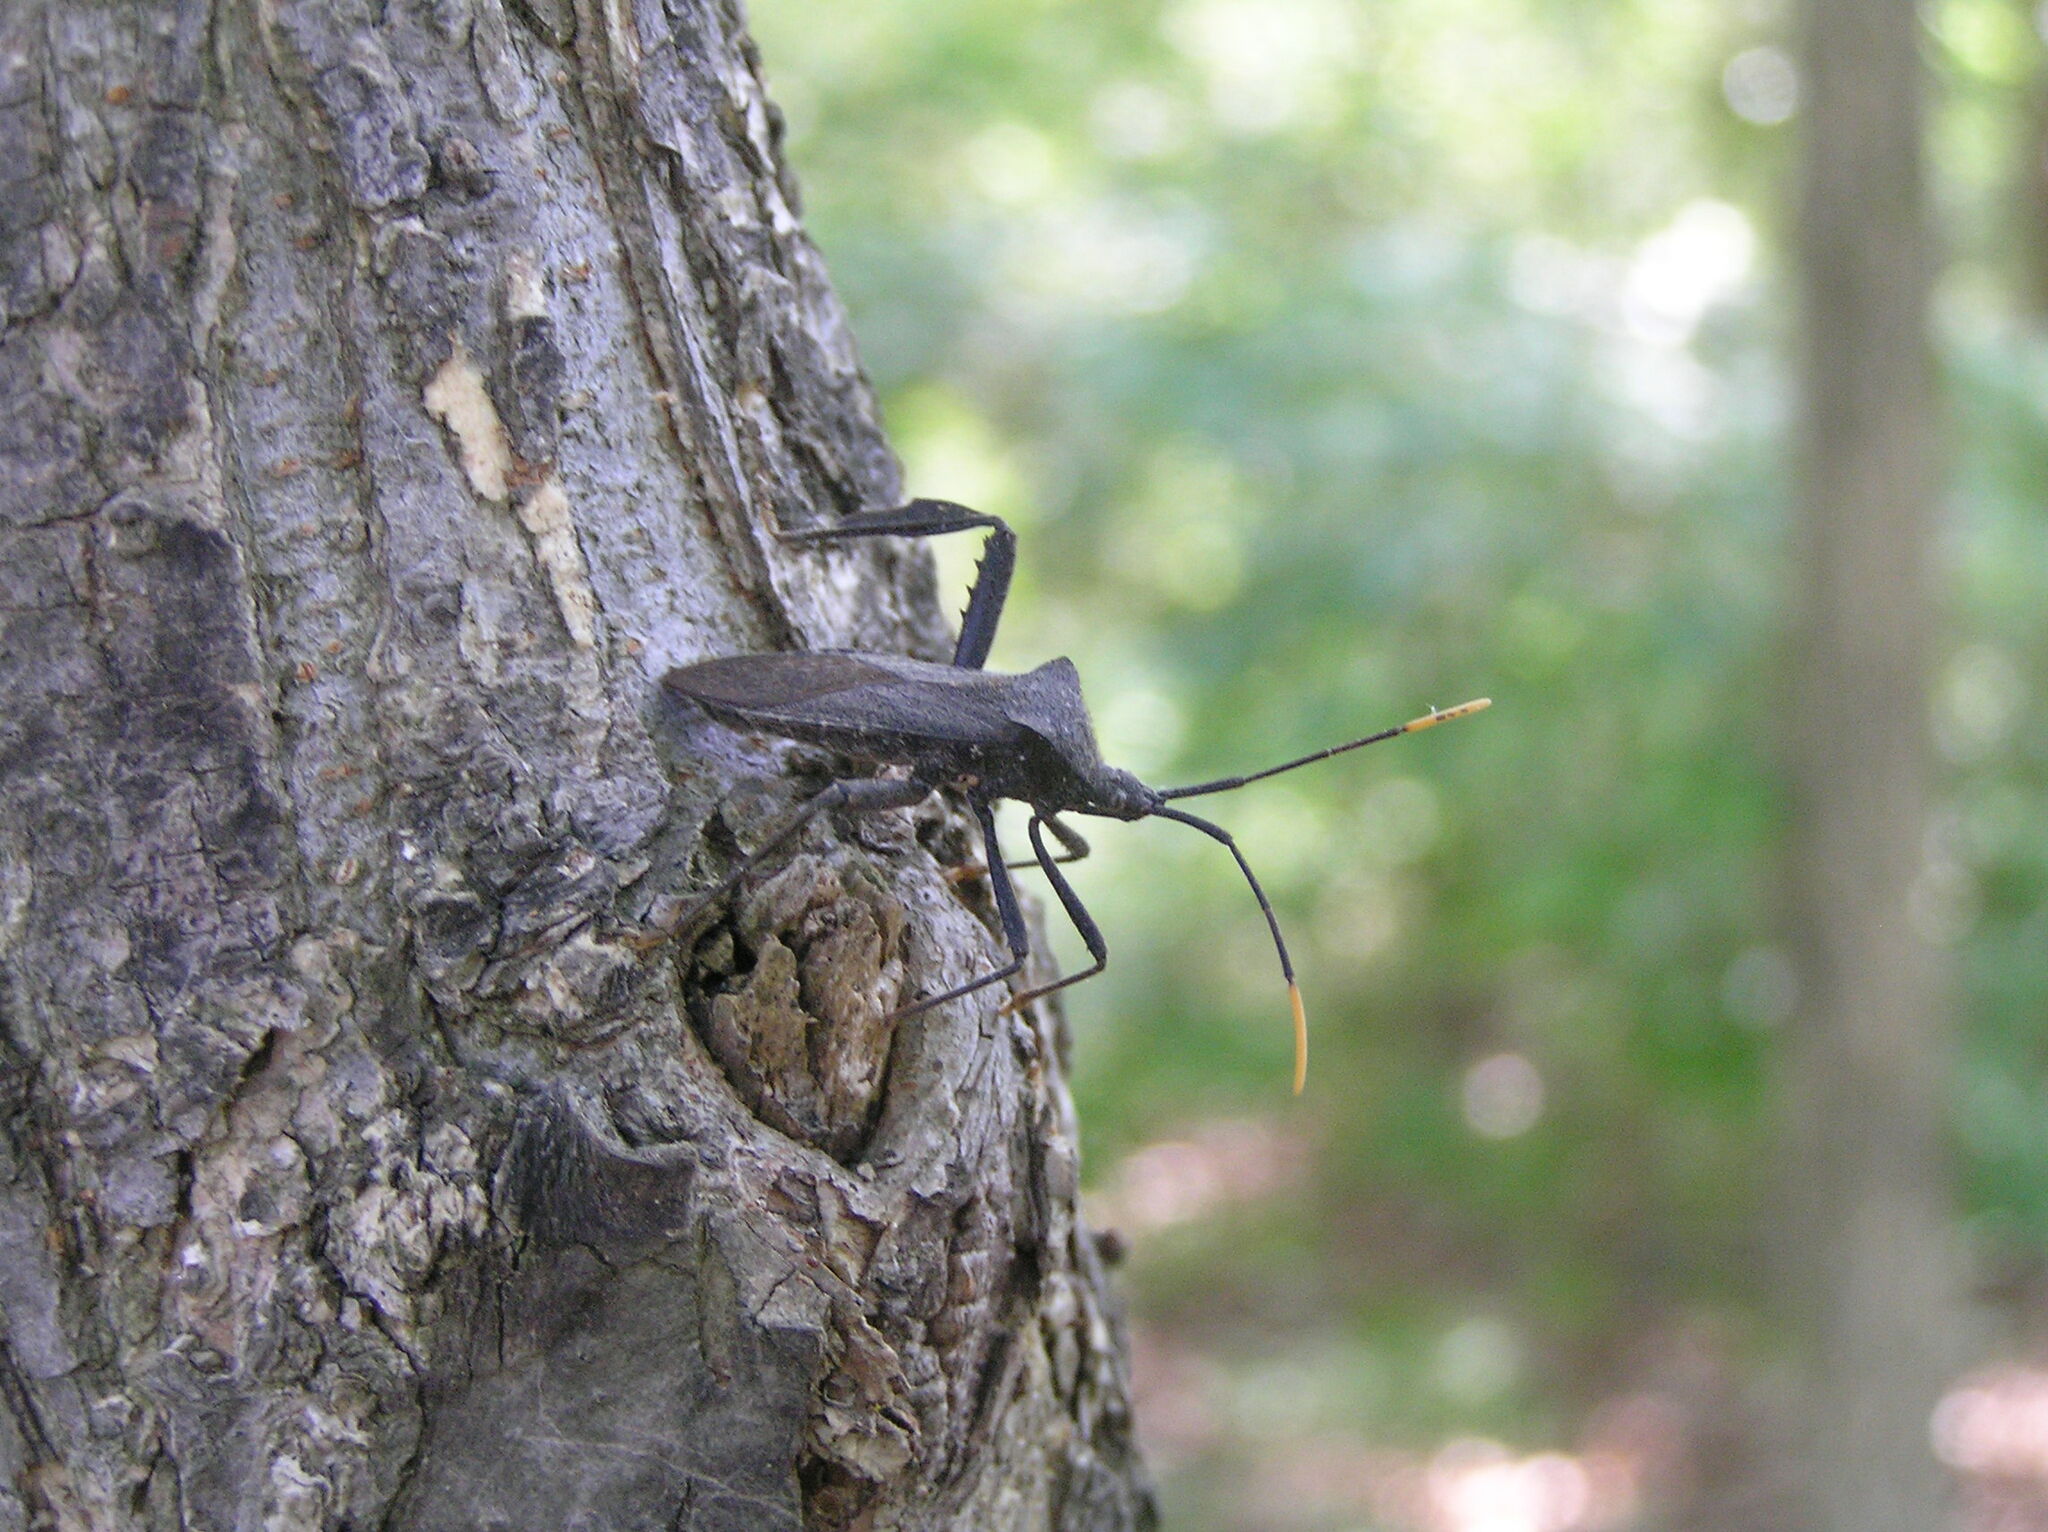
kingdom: Animalia
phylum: Arthropoda
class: Insecta
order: Hemiptera
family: Coreidae
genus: Acanthocephala
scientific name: Acanthocephala terminalis
